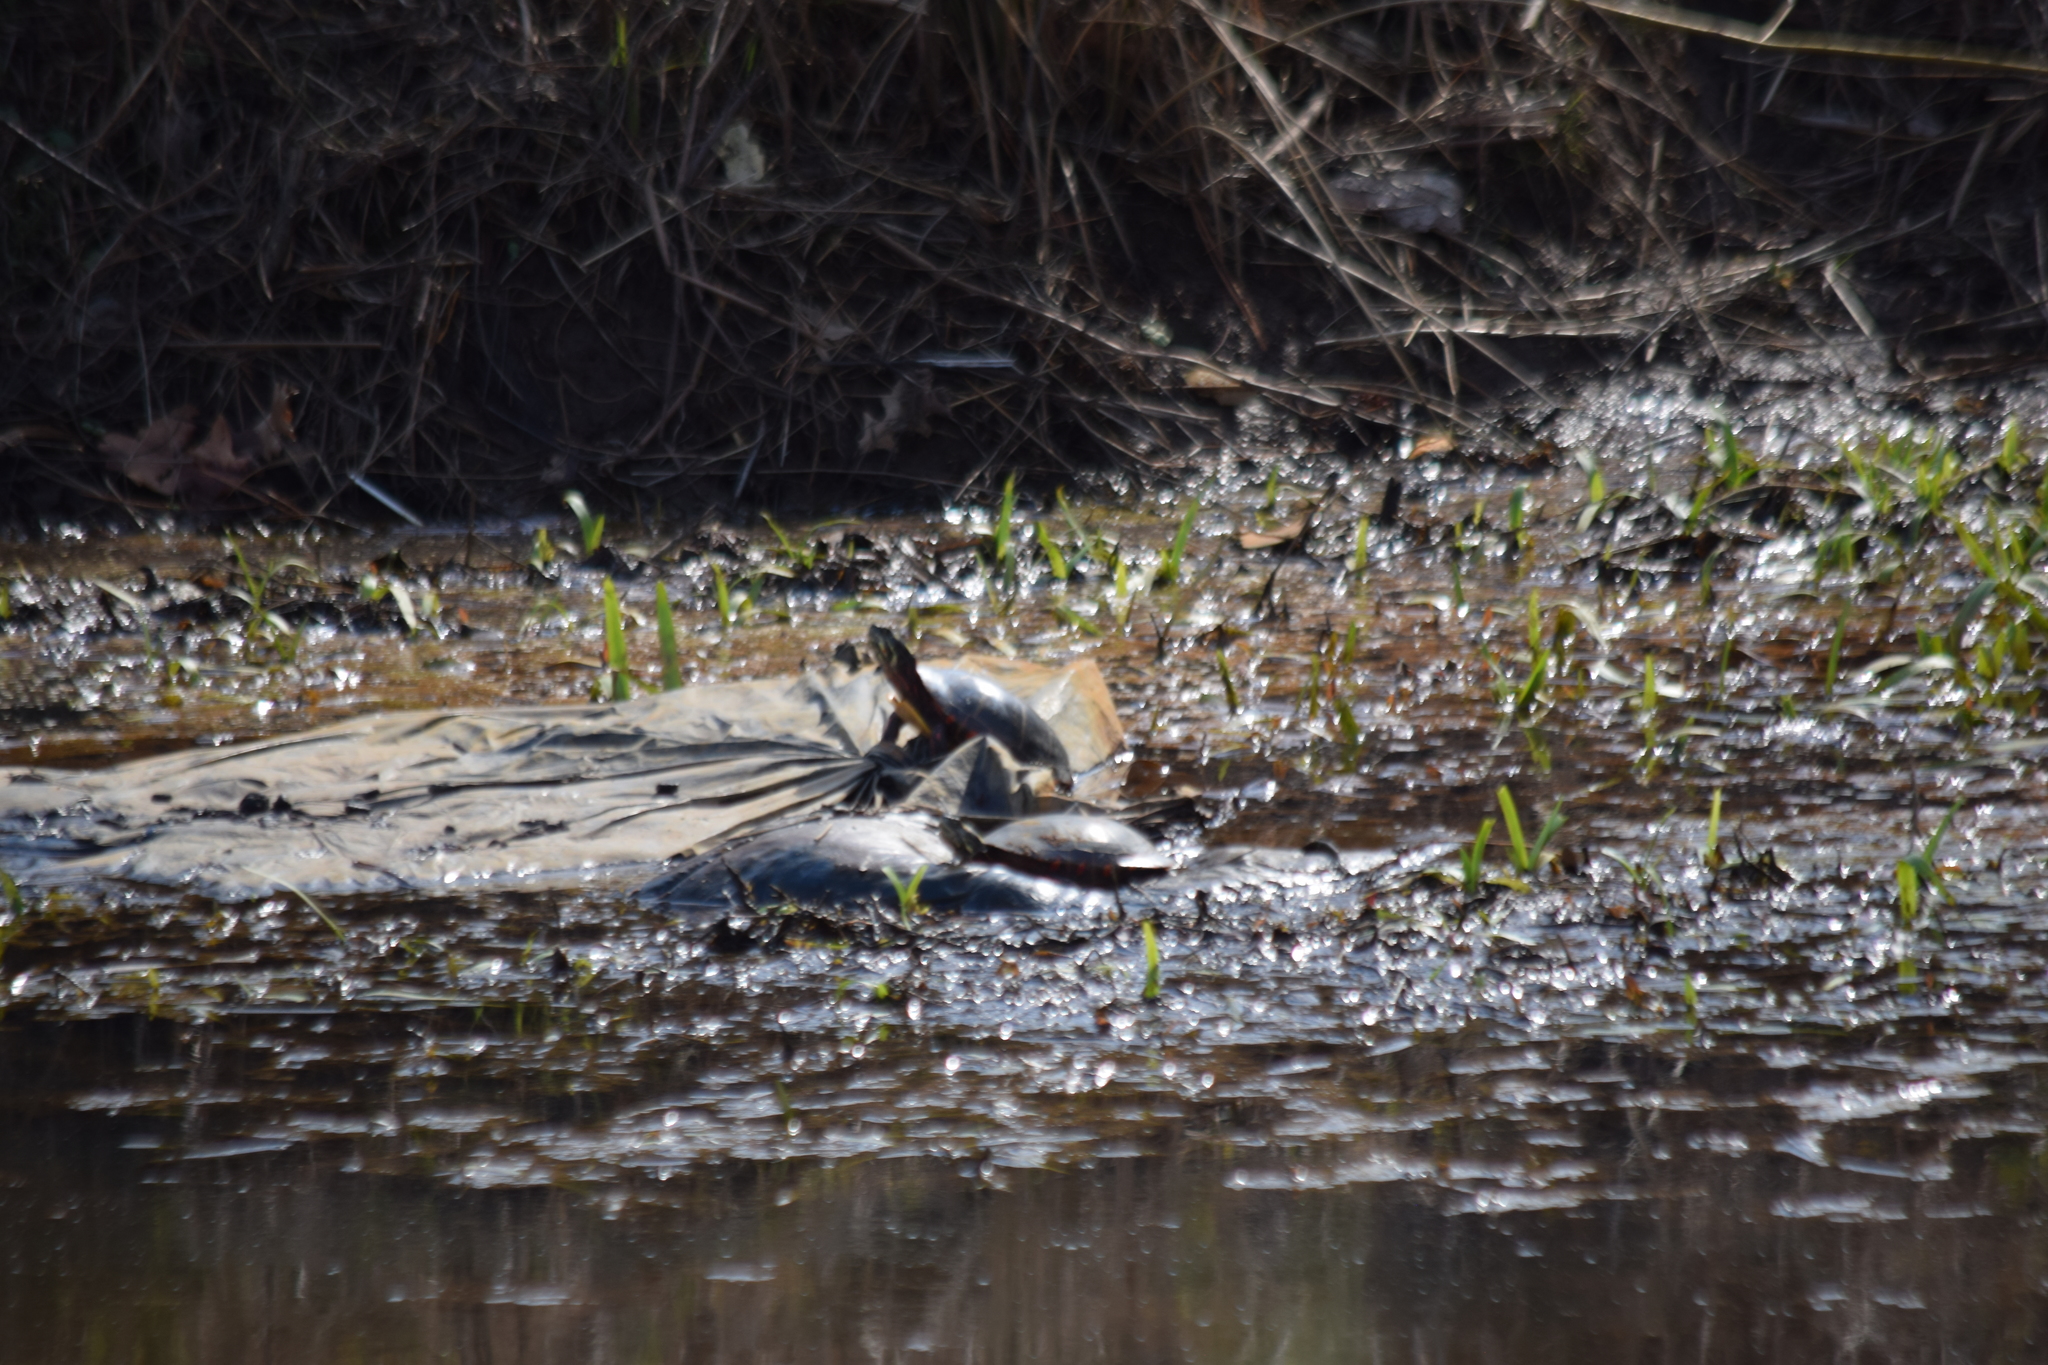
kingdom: Animalia
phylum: Chordata
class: Testudines
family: Emydidae
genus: Chrysemys
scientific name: Chrysemys picta
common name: Painted turtle
